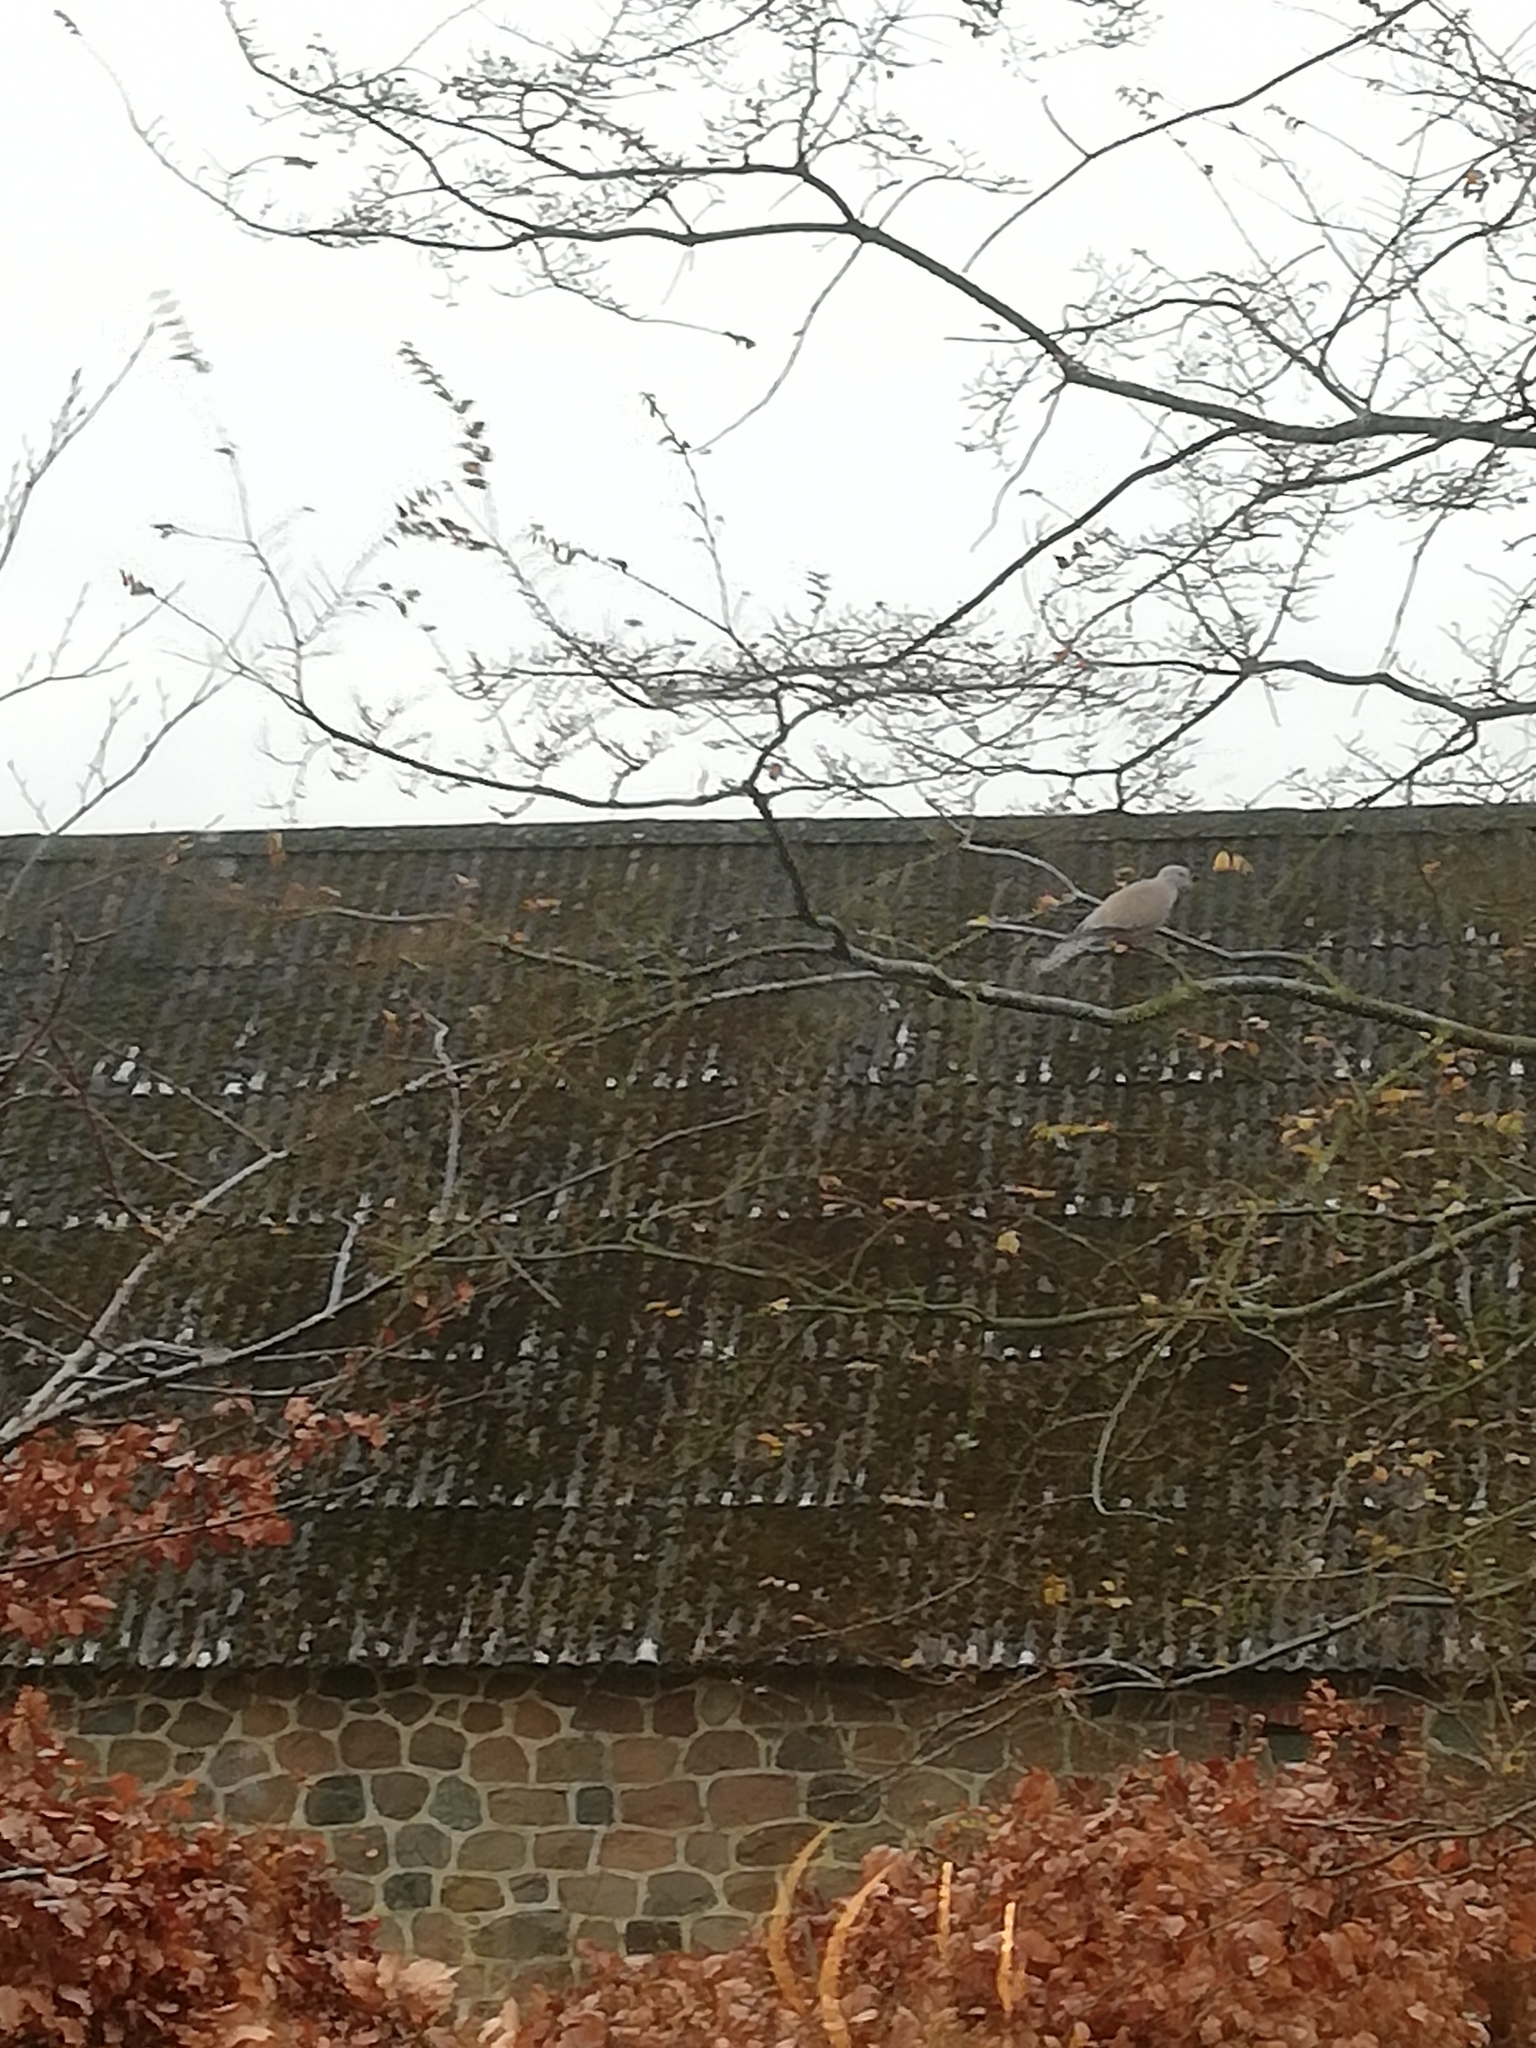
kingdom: Animalia
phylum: Chordata
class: Aves
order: Columbiformes
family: Columbidae
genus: Streptopelia
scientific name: Streptopelia decaocto
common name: Eurasian collared dove
